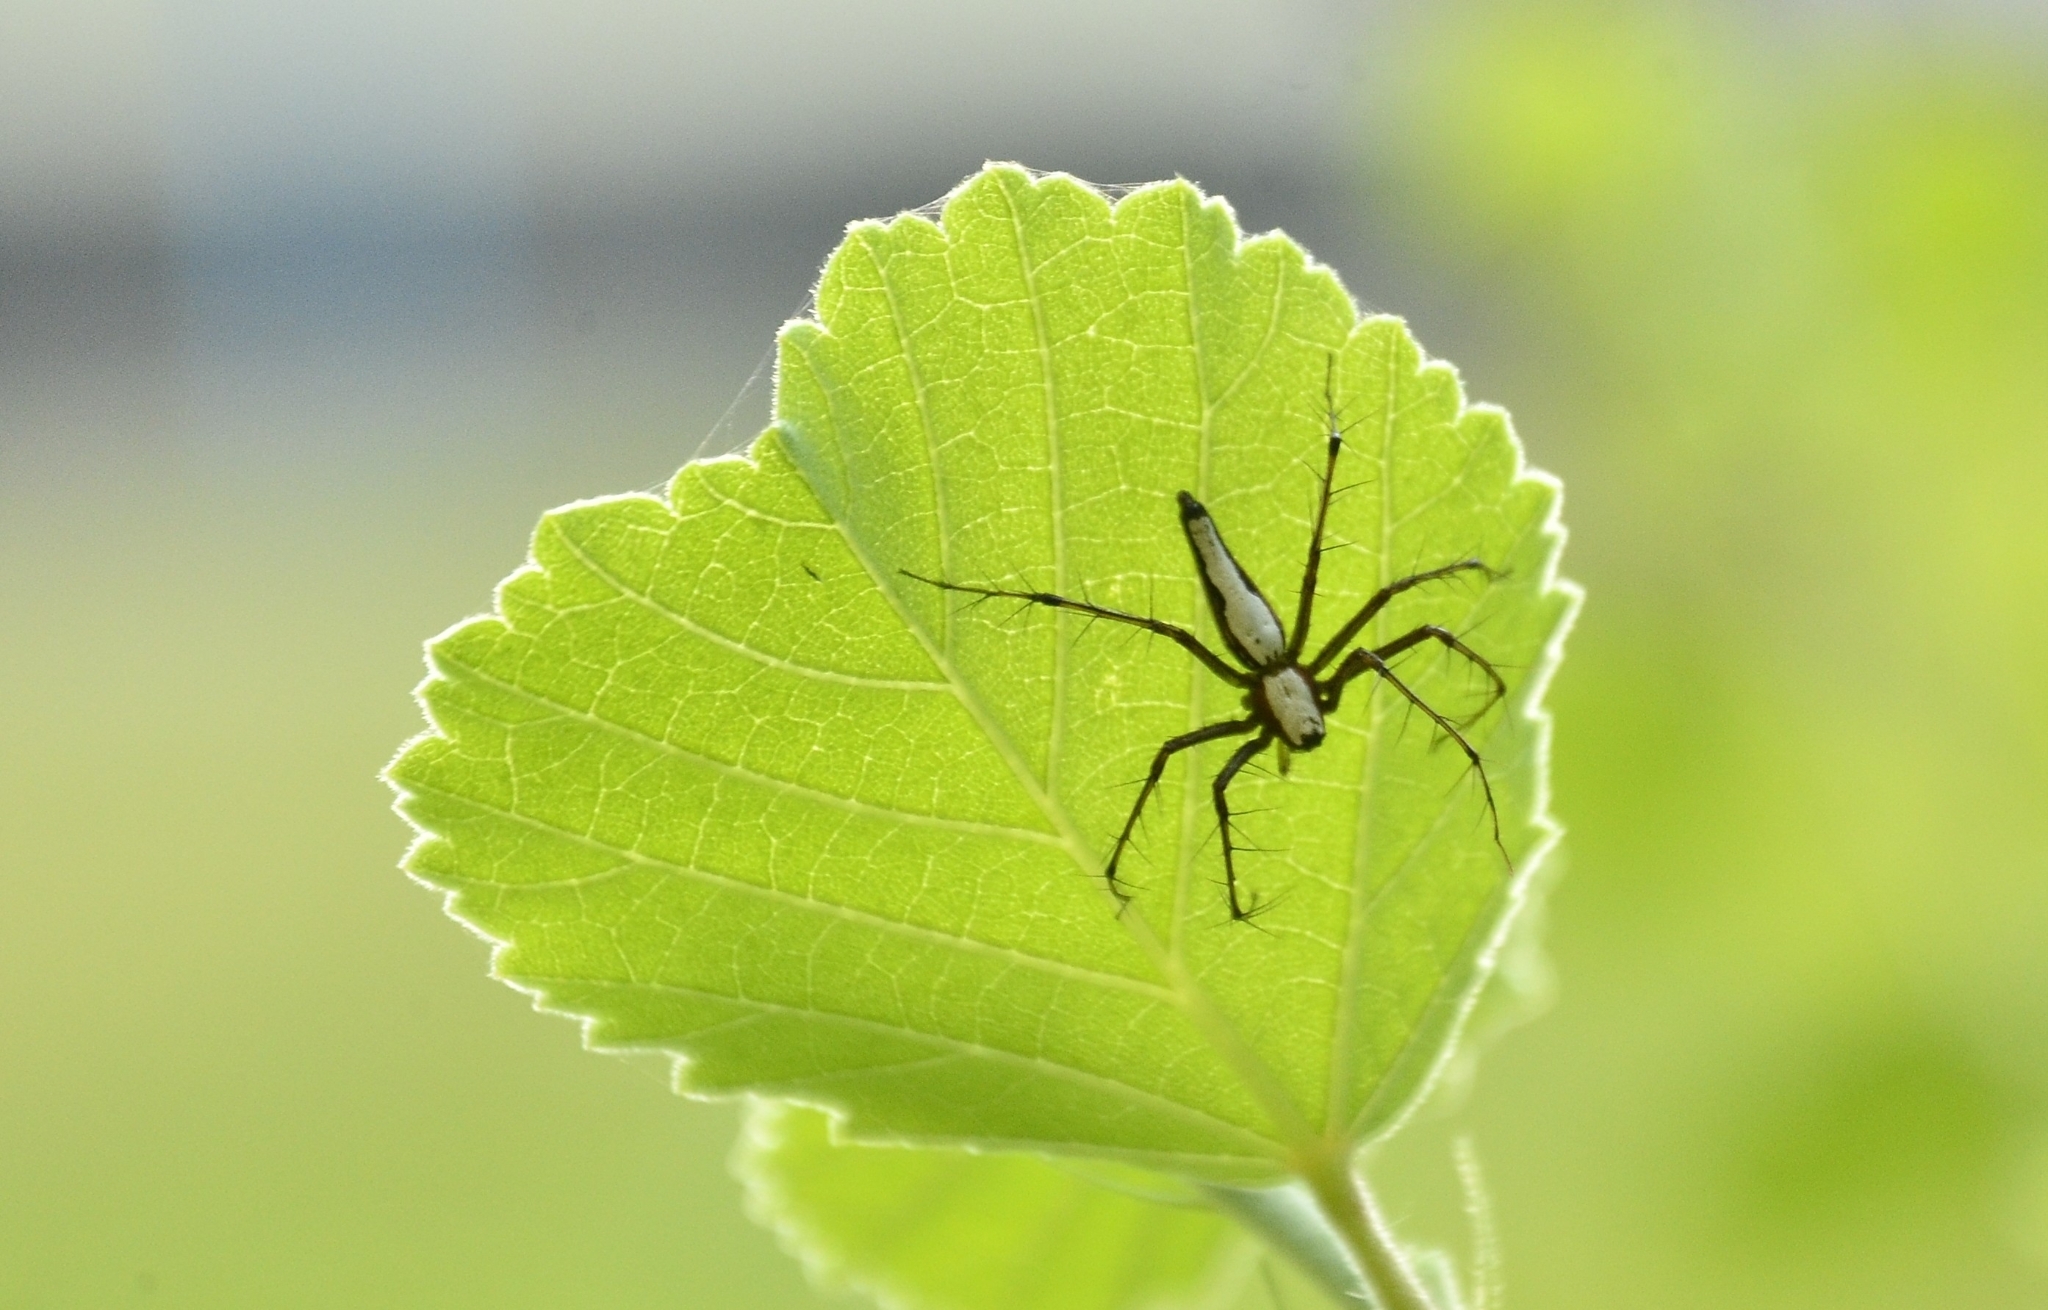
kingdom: Animalia
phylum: Arthropoda
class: Arachnida
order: Araneae
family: Oxyopidae
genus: Oxyopes
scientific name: Oxyopes shweta
